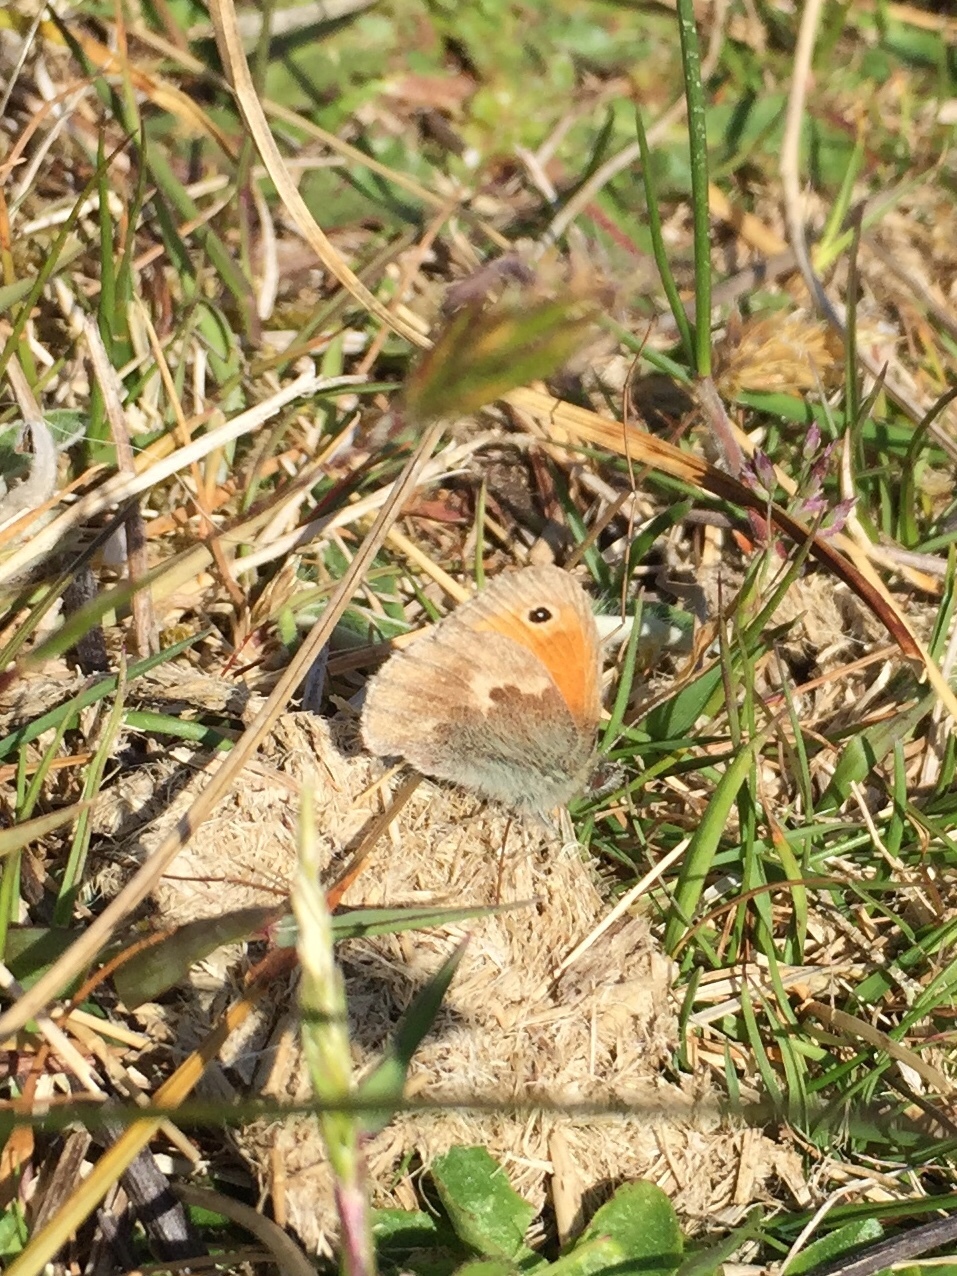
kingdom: Animalia
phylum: Arthropoda
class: Insecta
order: Lepidoptera
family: Nymphalidae
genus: Coenonympha
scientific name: Coenonympha pamphilus
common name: Small heath
